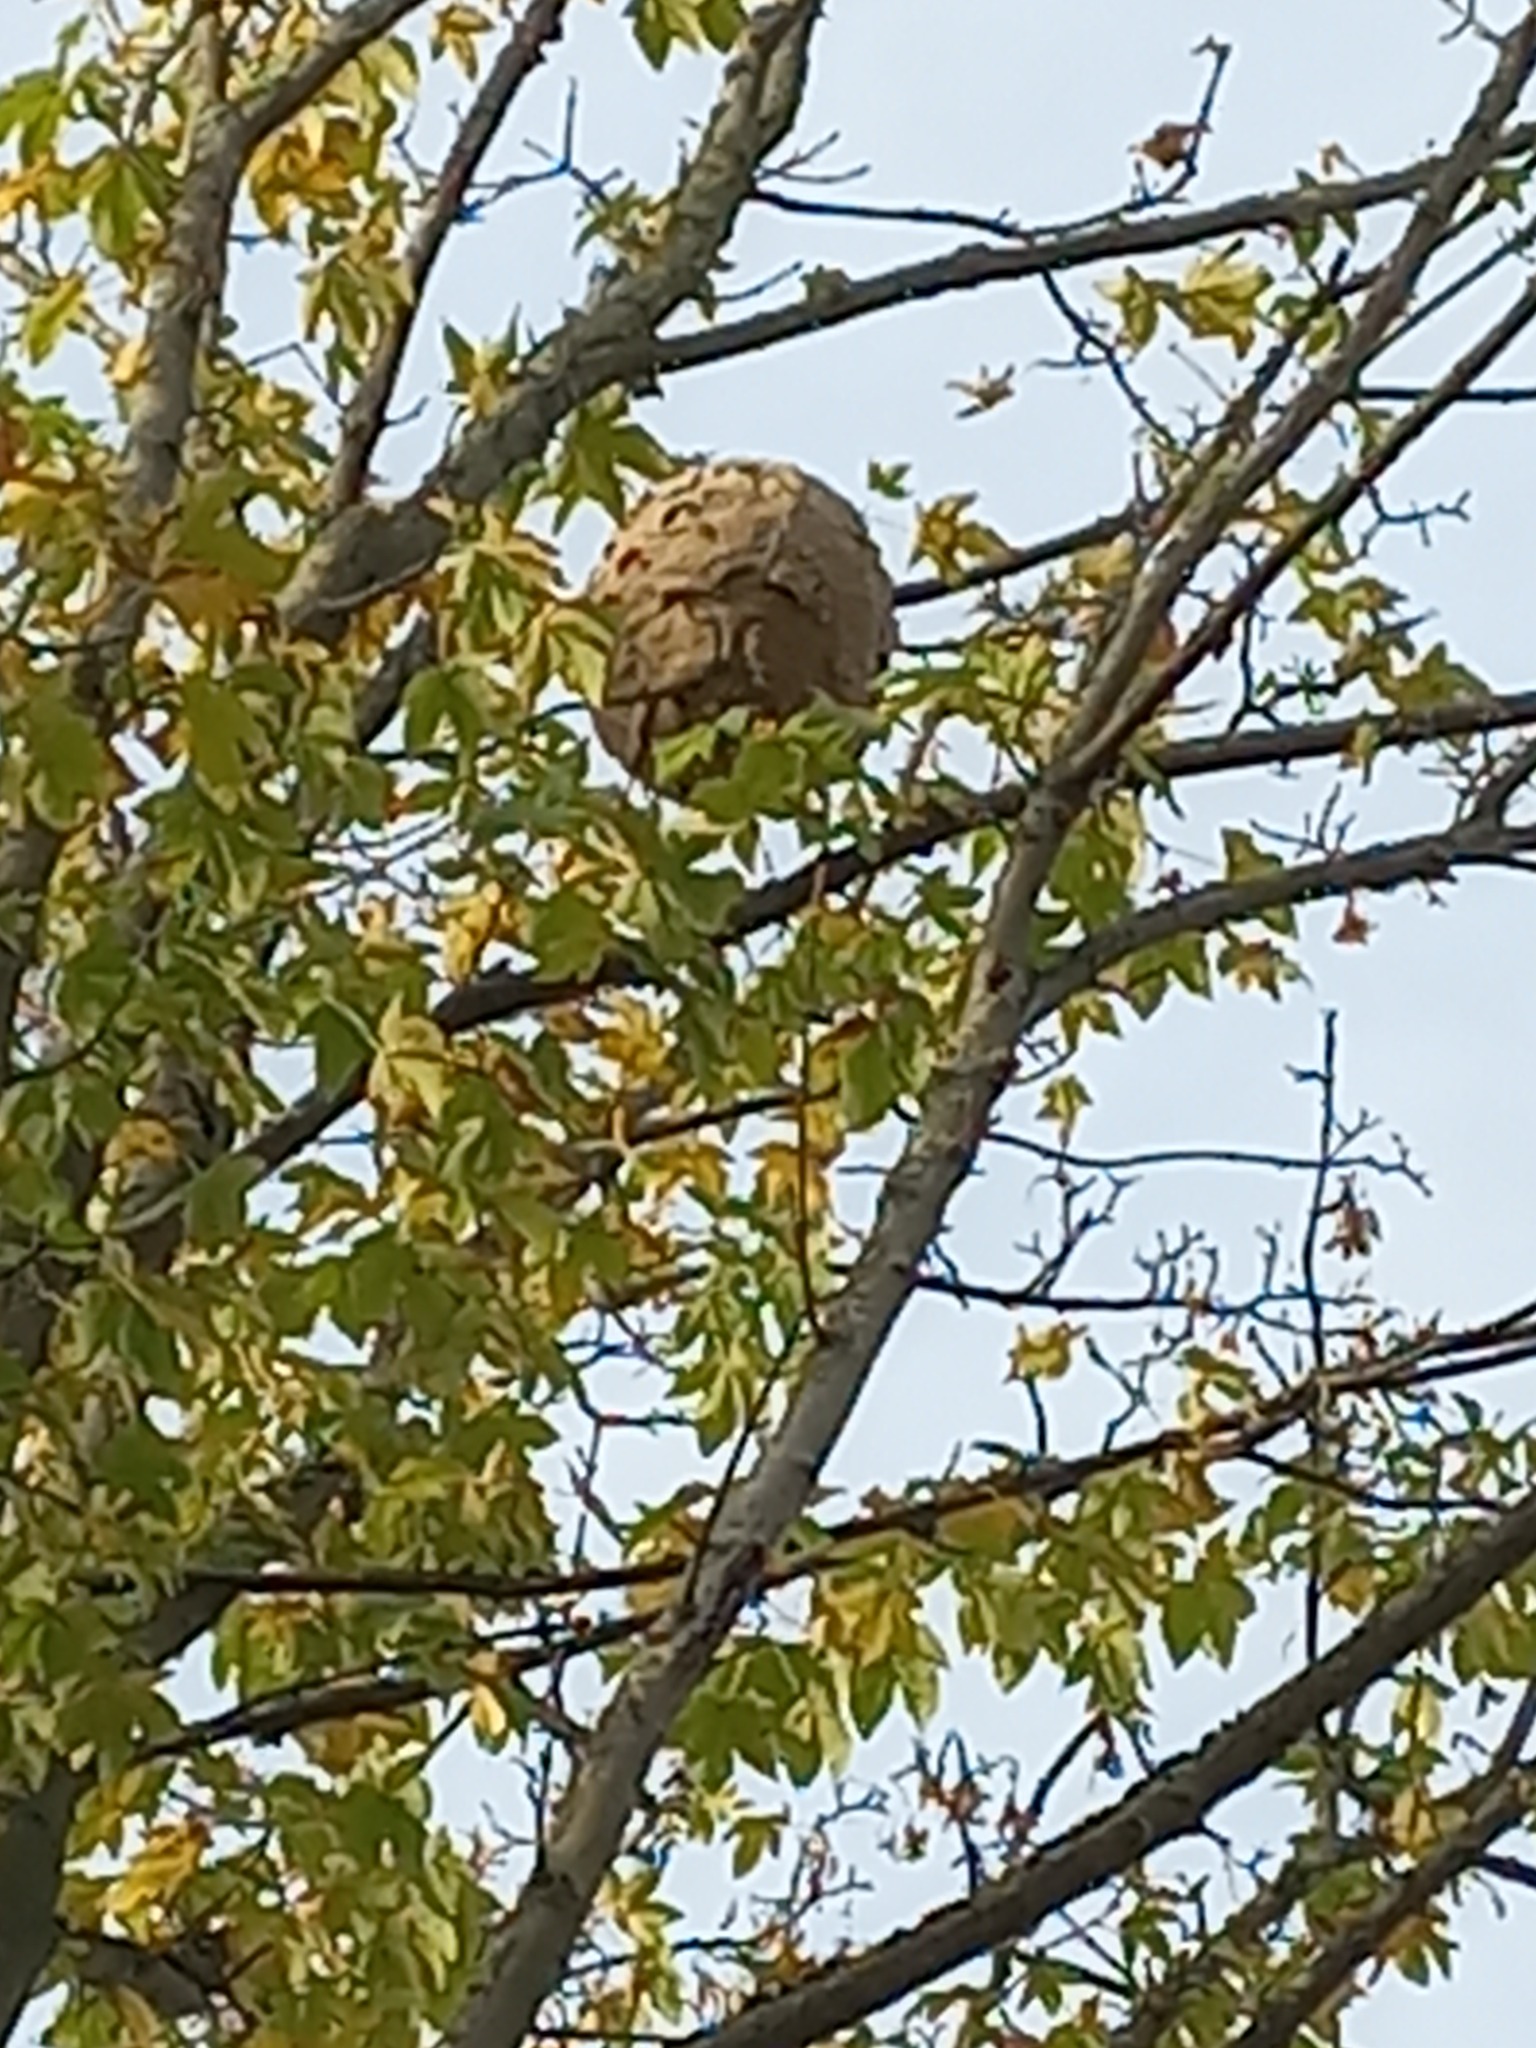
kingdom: Animalia
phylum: Arthropoda
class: Insecta
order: Hymenoptera
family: Vespidae
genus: Vespa
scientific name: Vespa velutina
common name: Asian hornet
